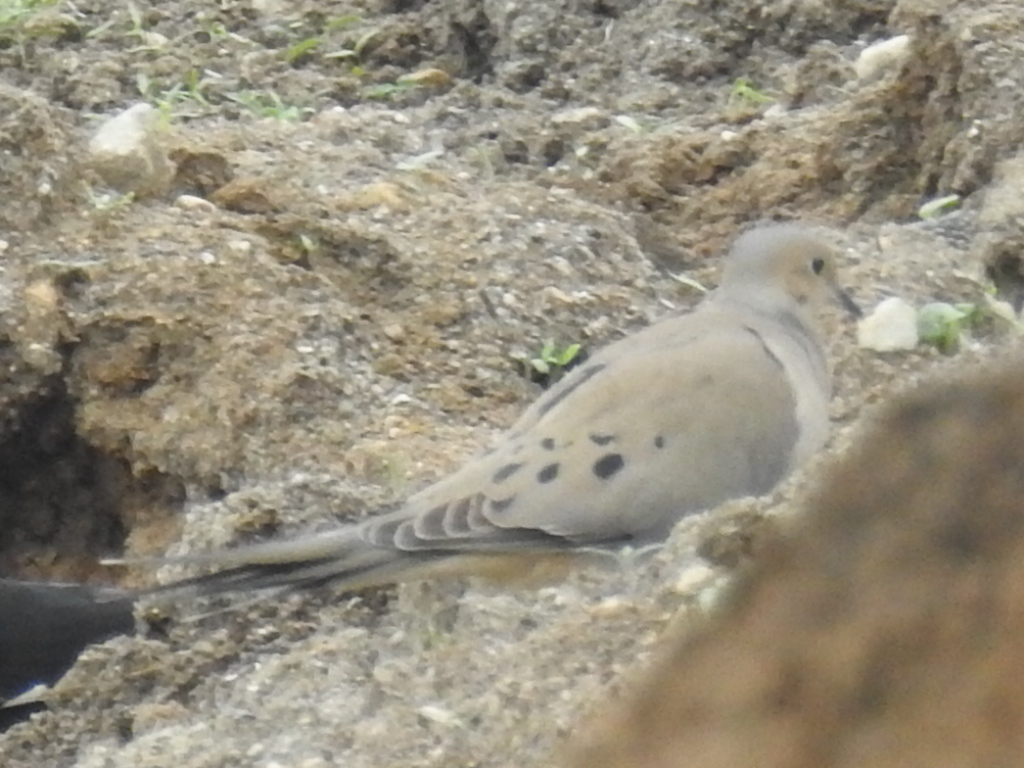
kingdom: Animalia
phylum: Chordata
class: Aves
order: Columbiformes
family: Columbidae
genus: Zenaida
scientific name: Zenaida macroura
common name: Mourning dove
